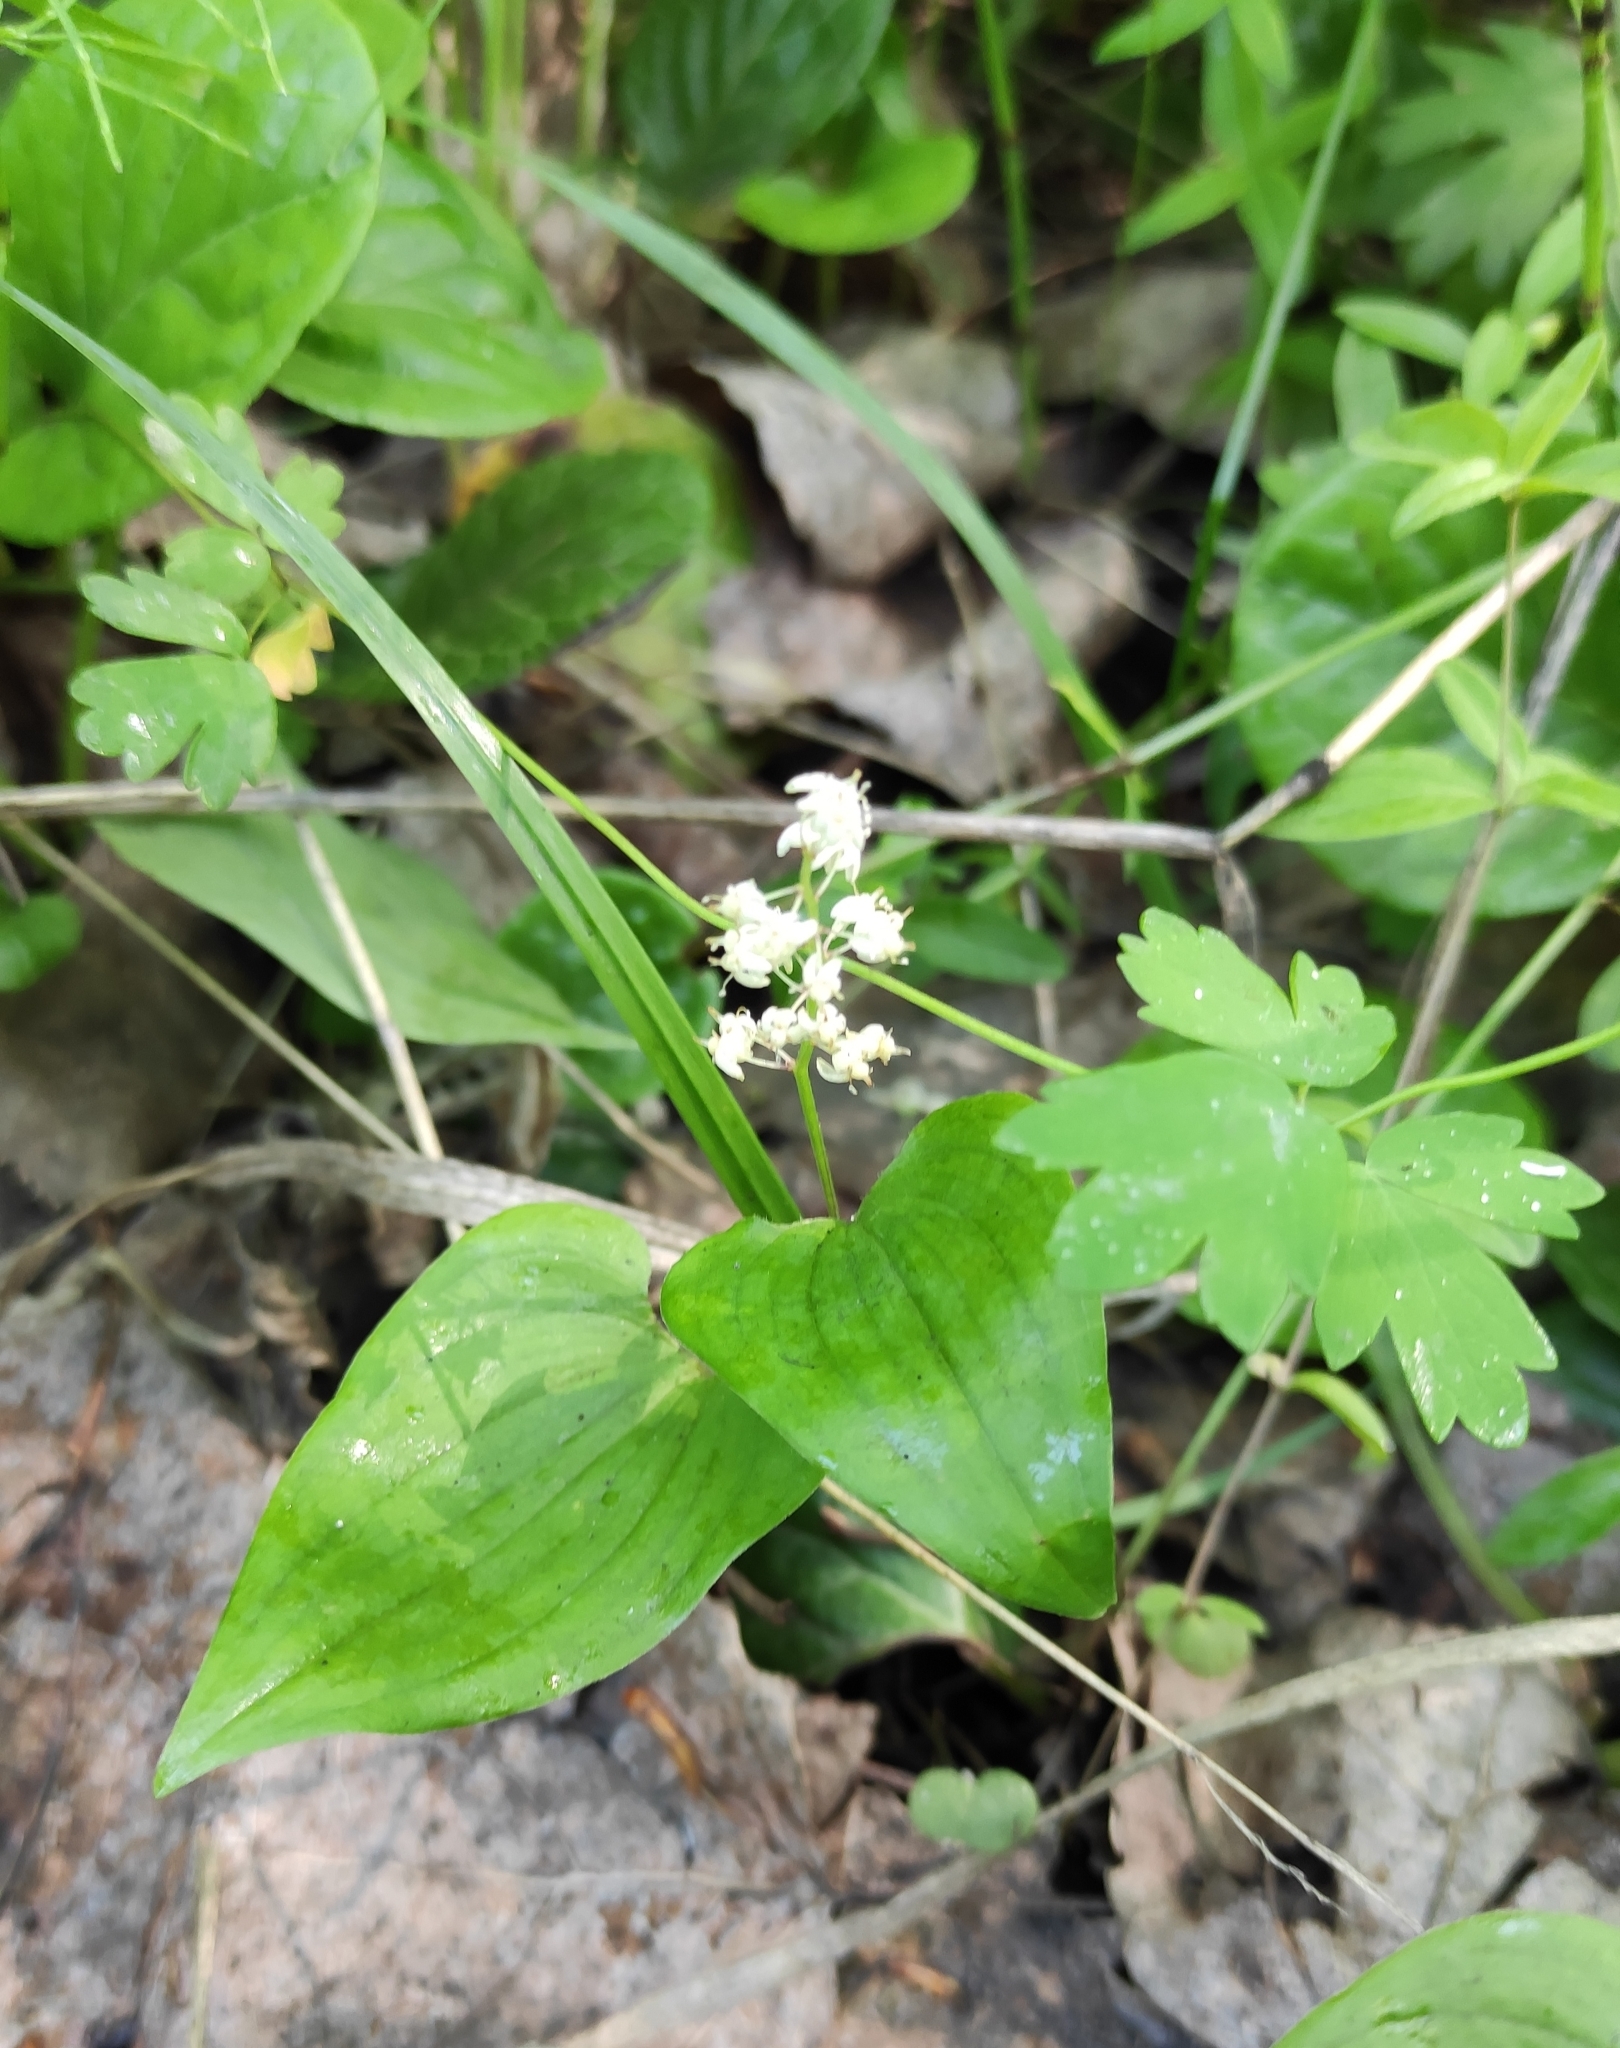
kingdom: Plantae
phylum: Tracheophyta
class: Liliopsida
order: Asparagales
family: Asparagaceae
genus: Maianthemum
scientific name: Maianthemum bifolium
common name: May lily
